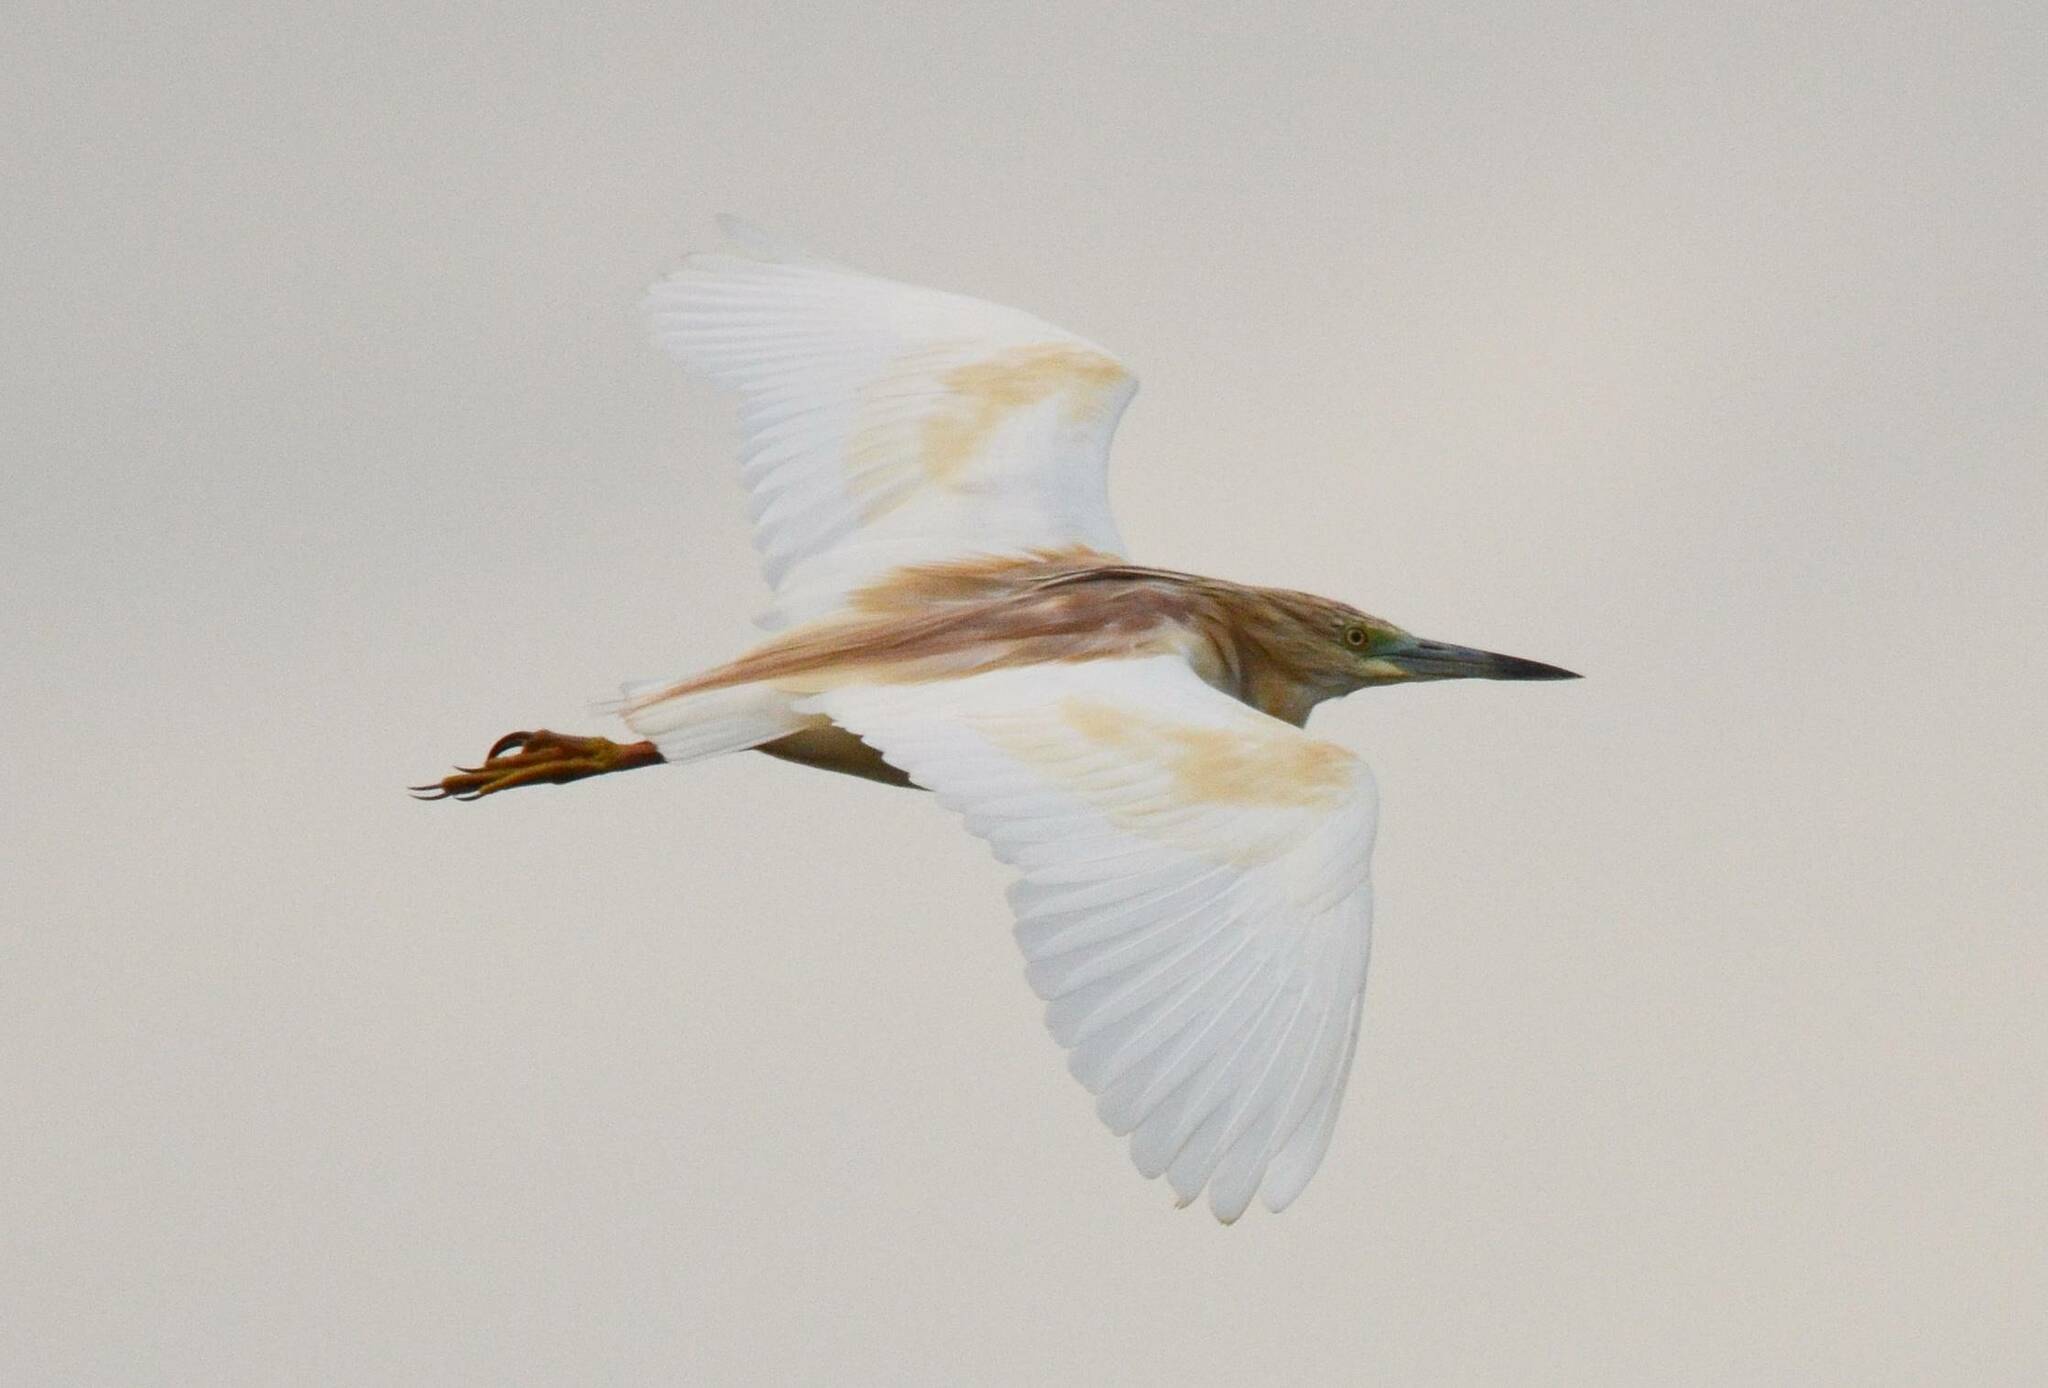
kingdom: Animalia
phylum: Chordata
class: Aves
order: Pelecaniformes
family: Ardeidae
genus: Ardeola
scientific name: Ardeola ralloides
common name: Squacco heron
